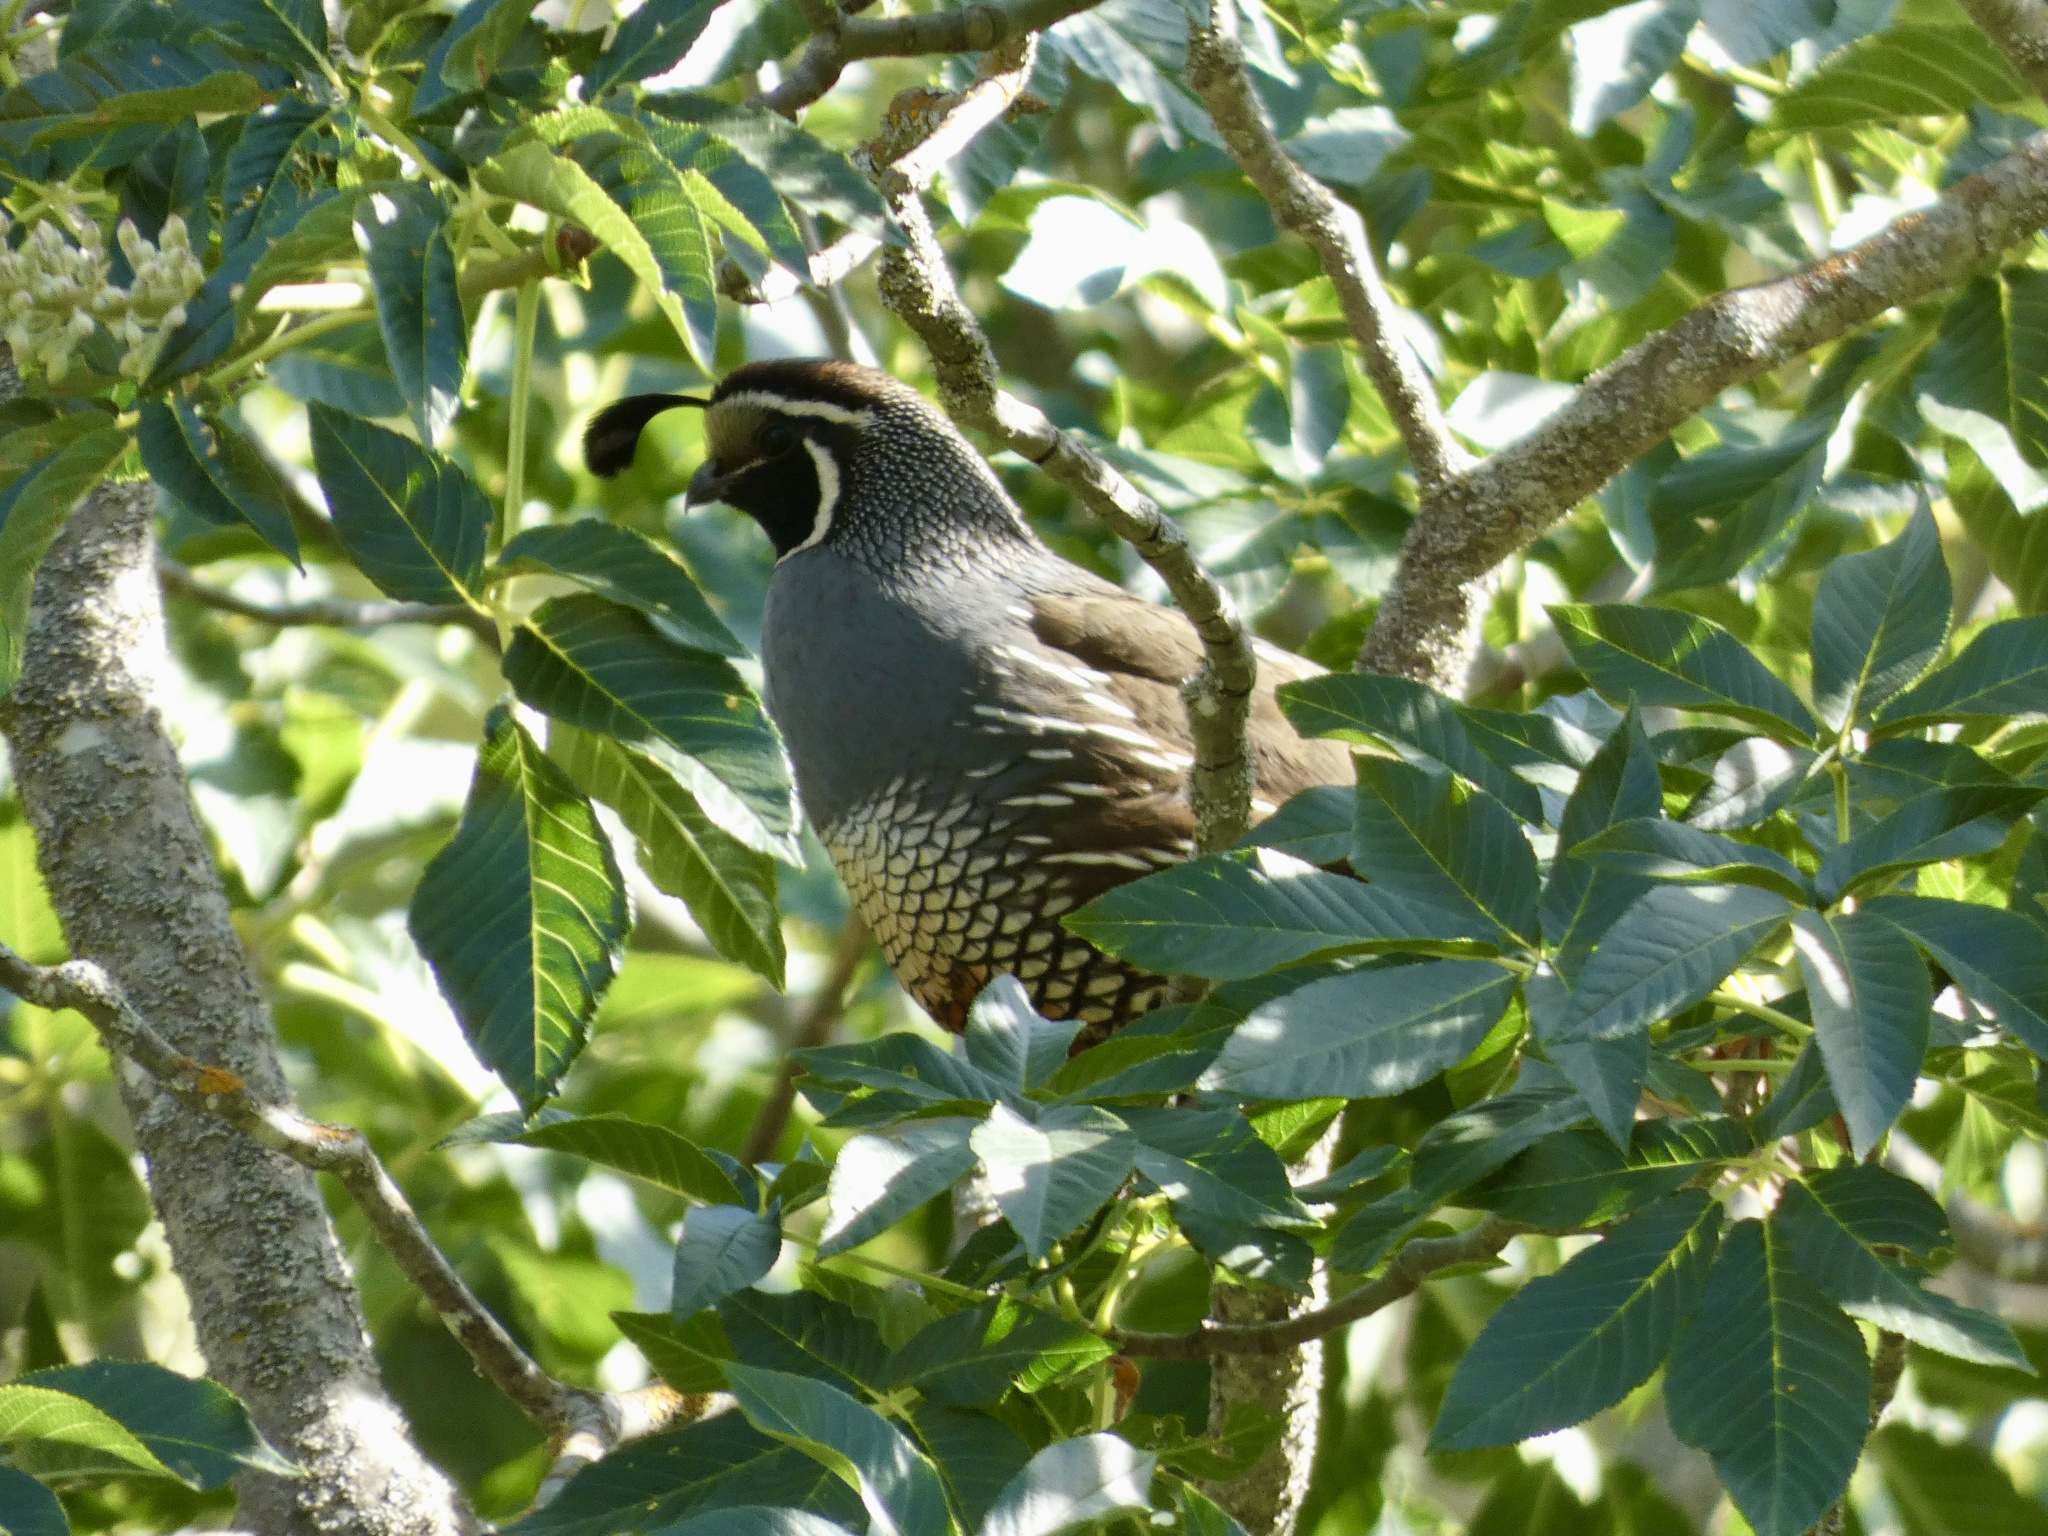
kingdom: Animalia
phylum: Chordata
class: Aves
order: Galliformes
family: Odontophoridae
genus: Callipepla
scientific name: Callipepla californica
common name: California quail
